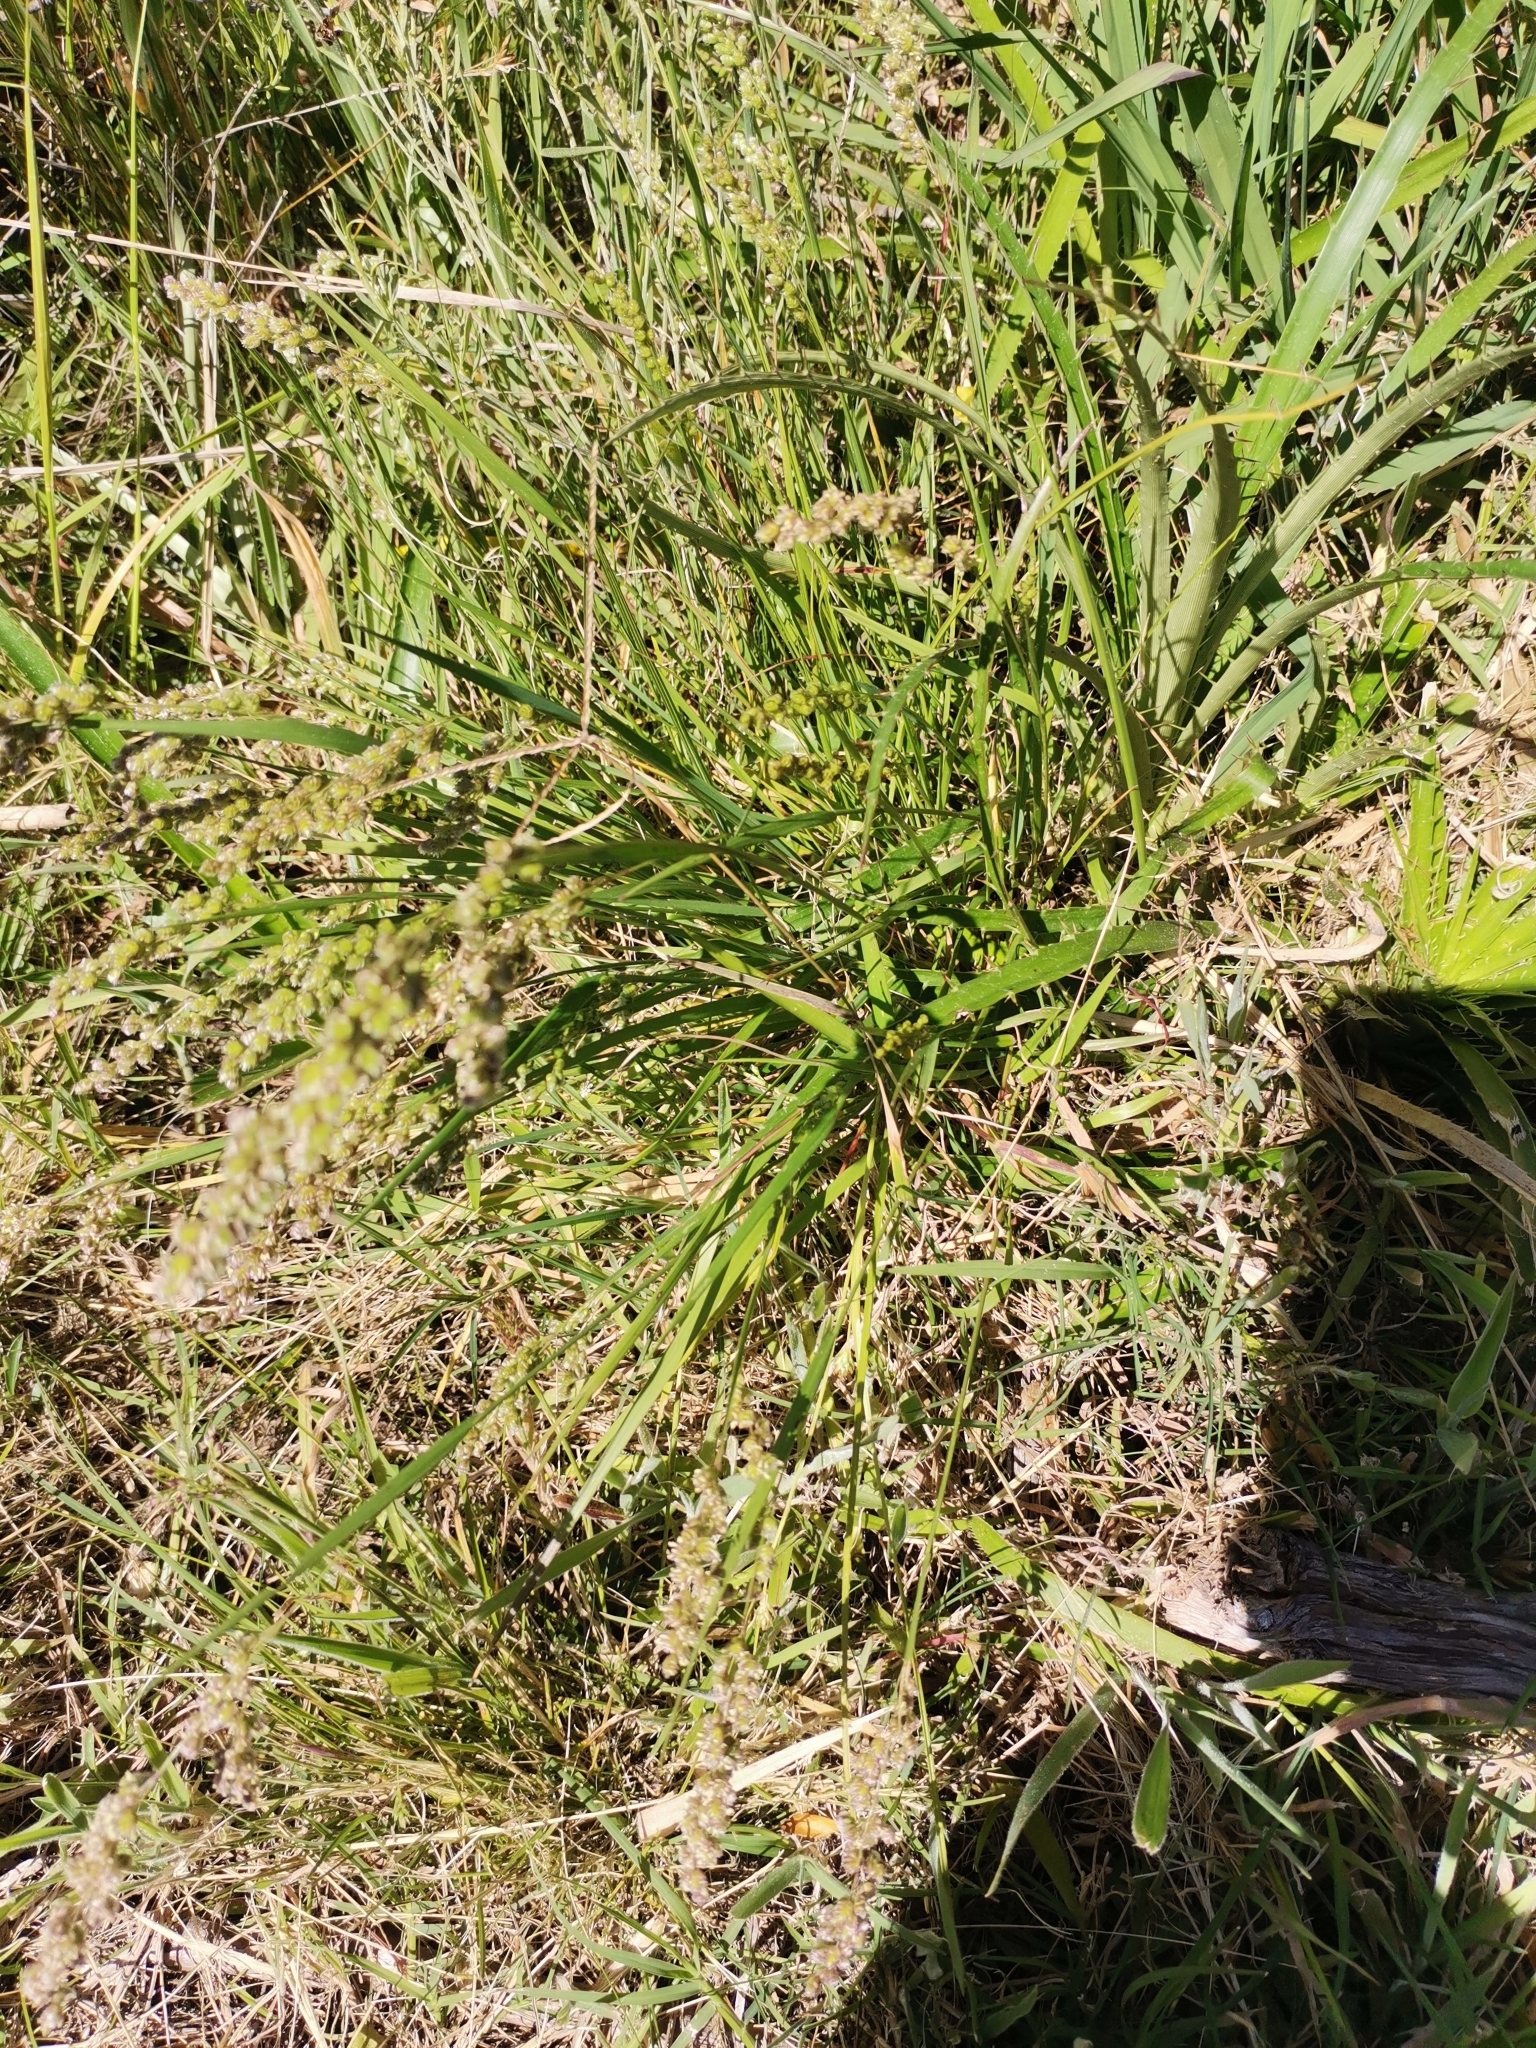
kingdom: Plantae
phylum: Tracheophyta
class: Liliopsida
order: Poales
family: Poaceae
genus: Chascolytrum
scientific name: Chascolytrum subaristatum
